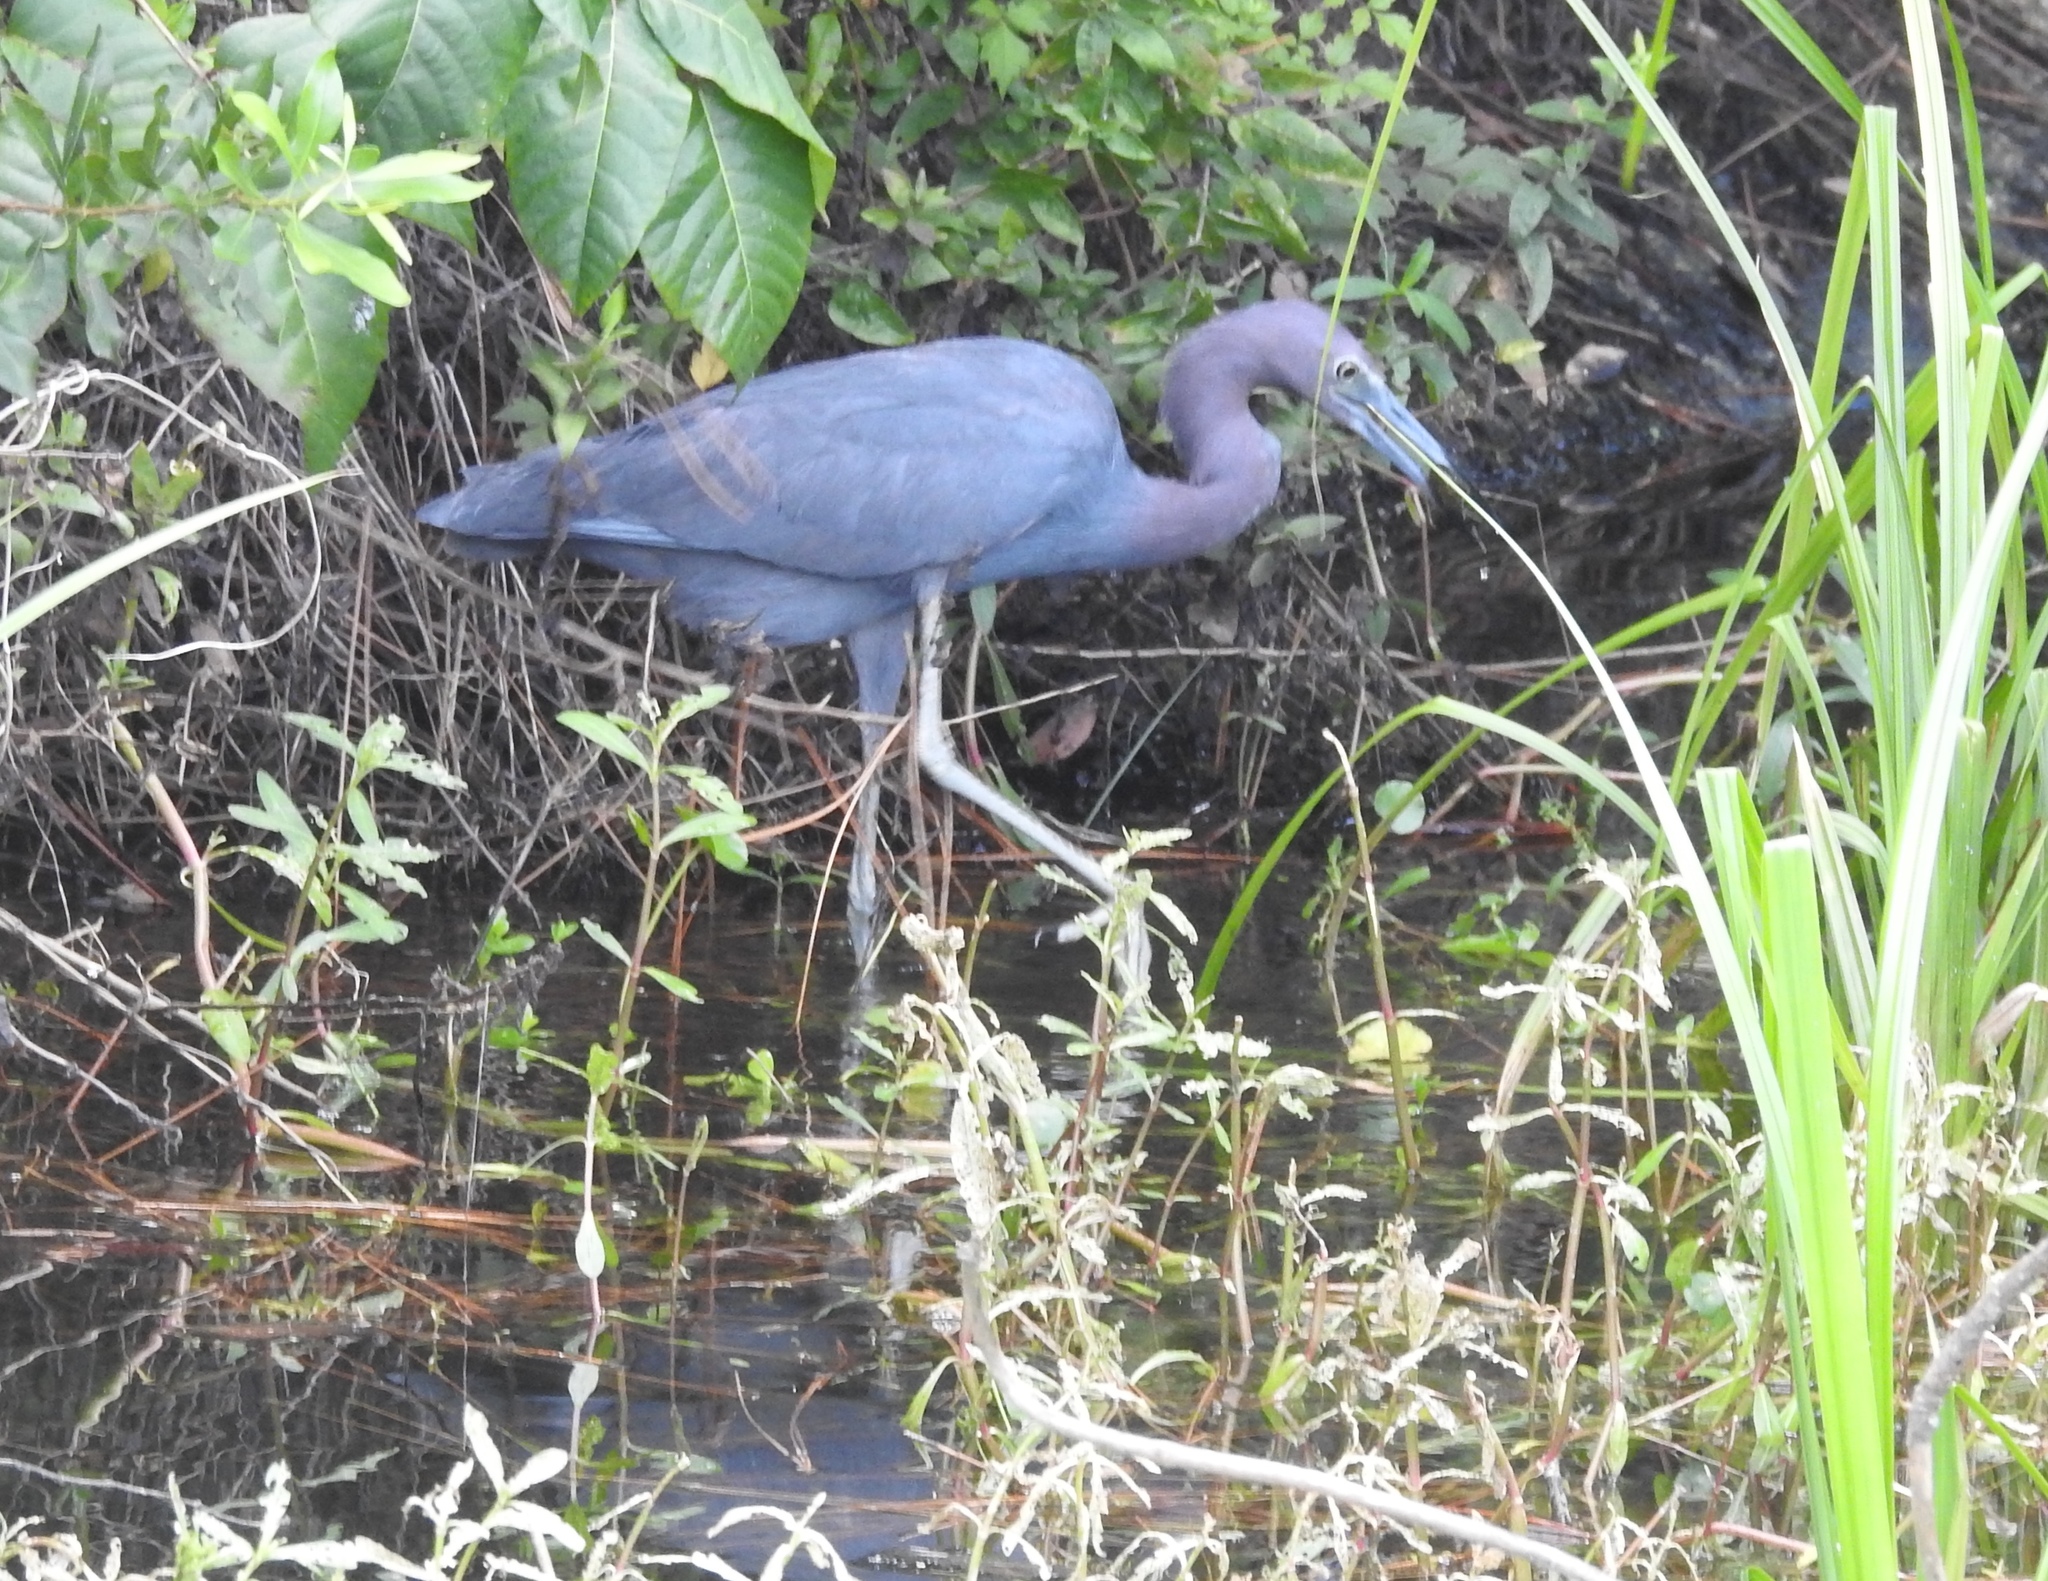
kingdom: Animalia
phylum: Chordata
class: Aves
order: Pelecaniformes
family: Ardeidae
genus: Egretta
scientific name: Egretta caerulea
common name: Little blue heron
